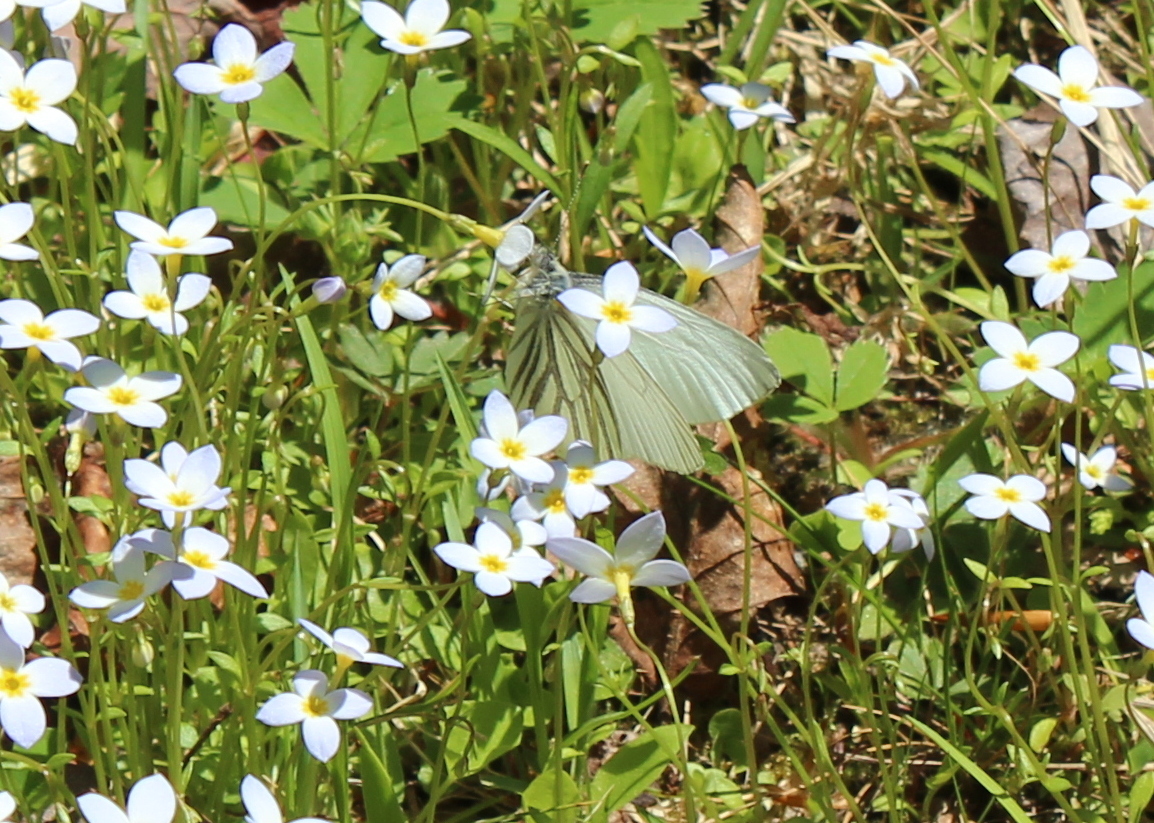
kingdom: Animalia
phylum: Arthropoda
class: Insecta
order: Lepidoptera
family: Pieridae
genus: Pieris
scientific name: Pieris oleracea
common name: Mustard white
